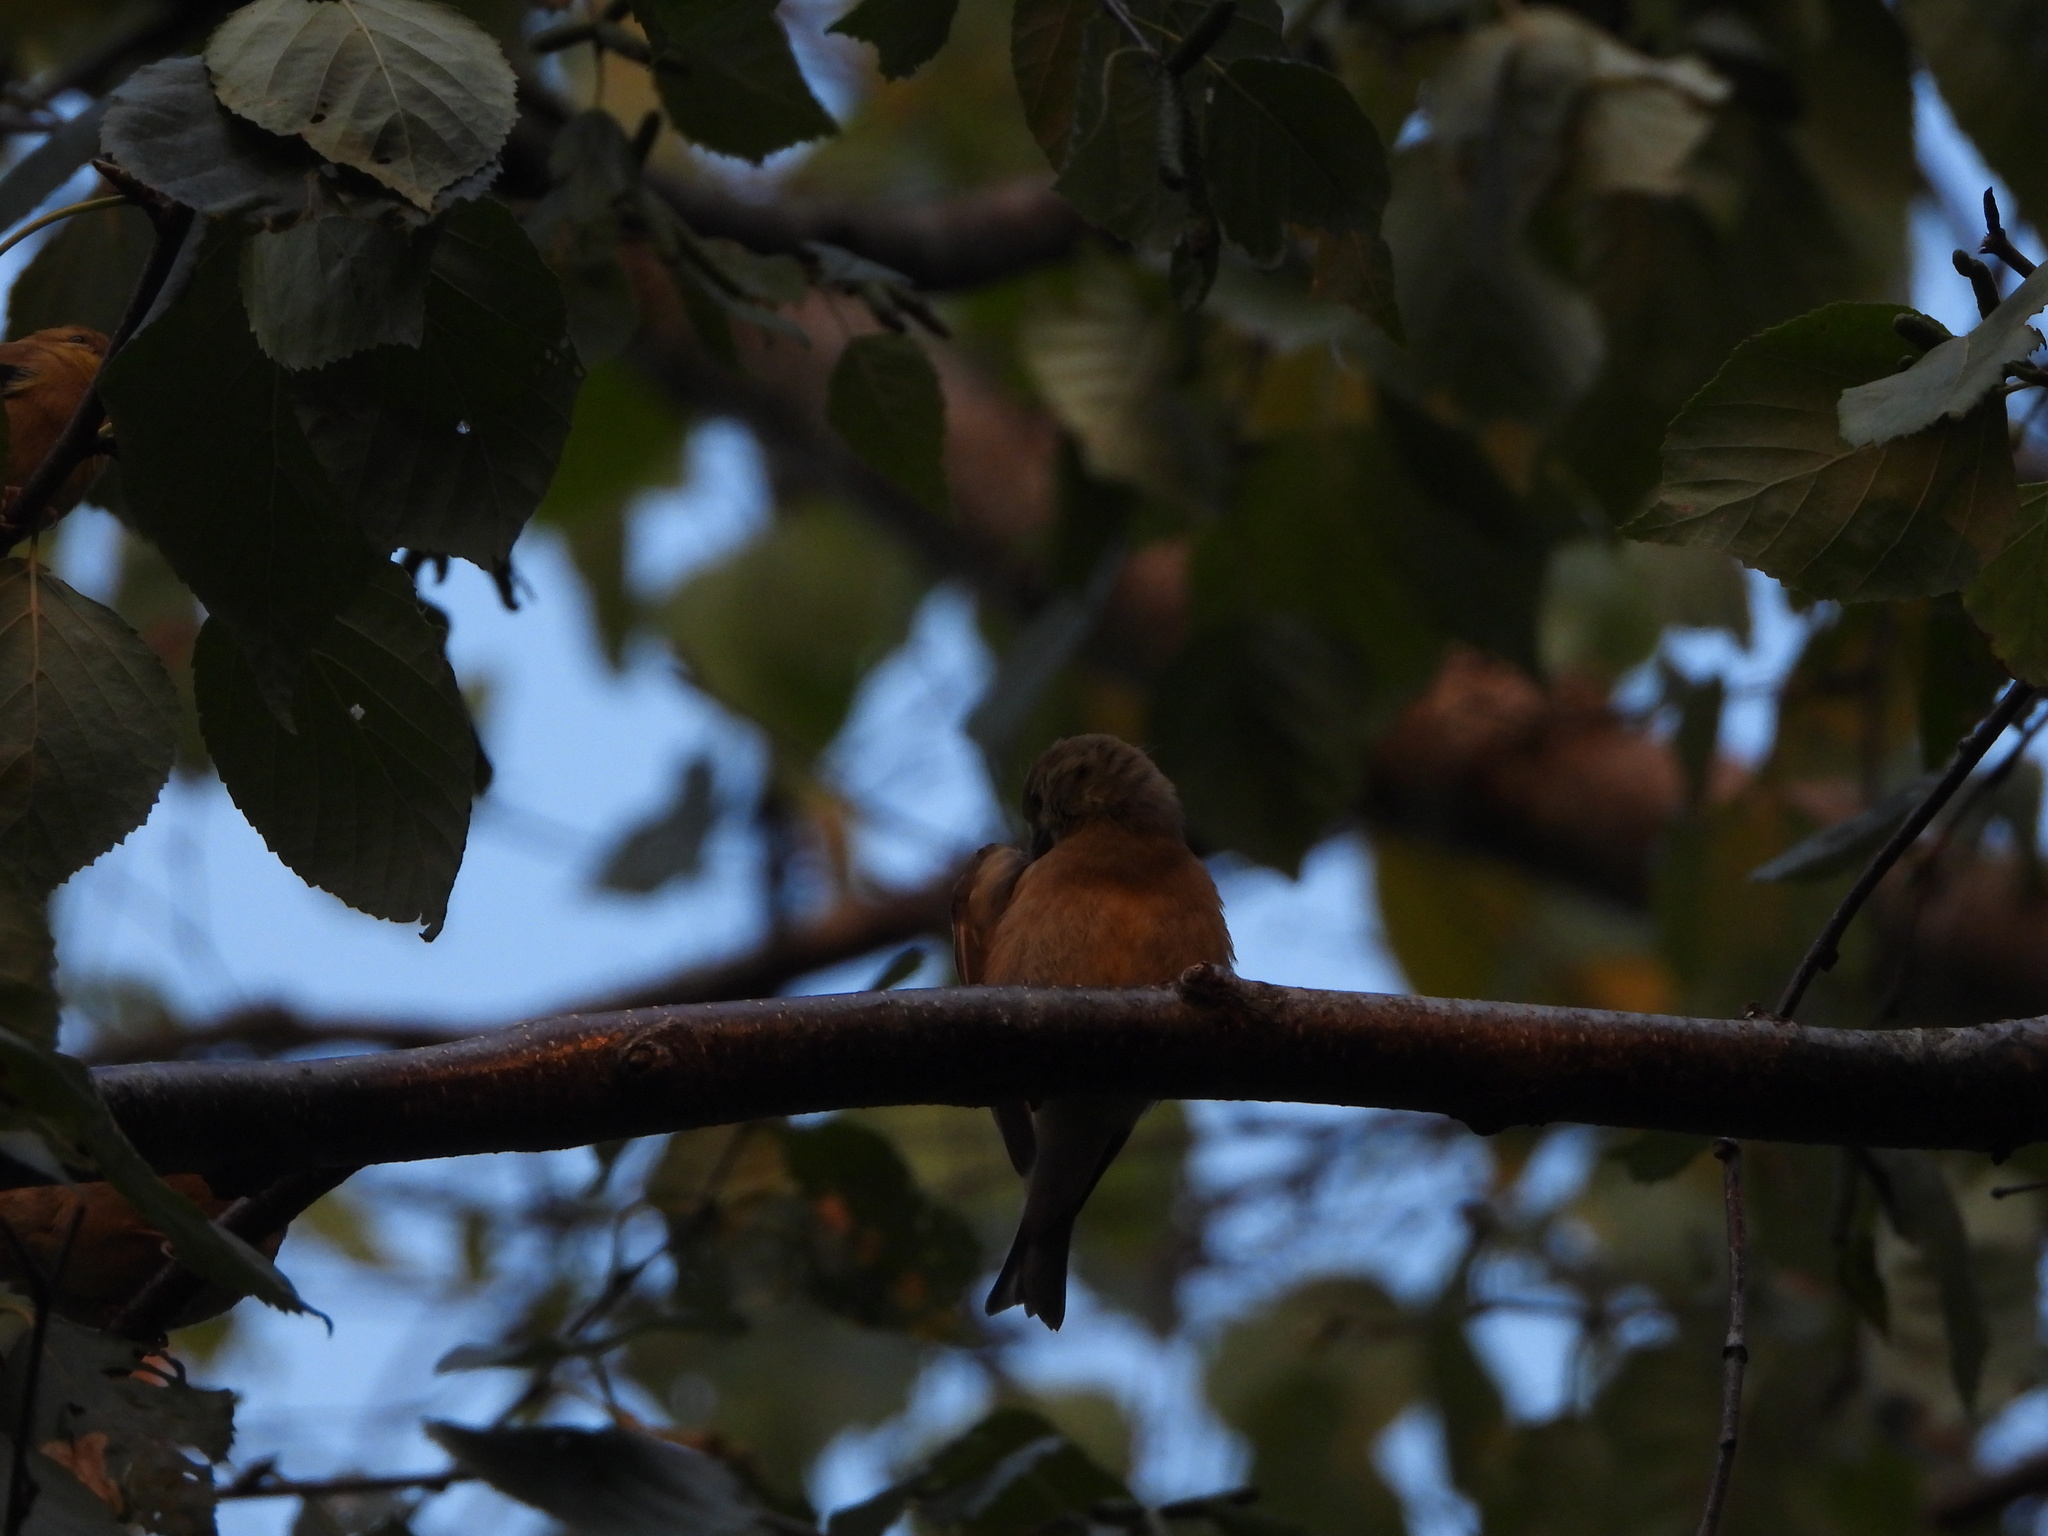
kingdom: Animalia
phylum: Chordata
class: Aves
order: Passeriformes
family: Fringillidae
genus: Spinus
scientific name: Spinus tristis
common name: American goldfinch
